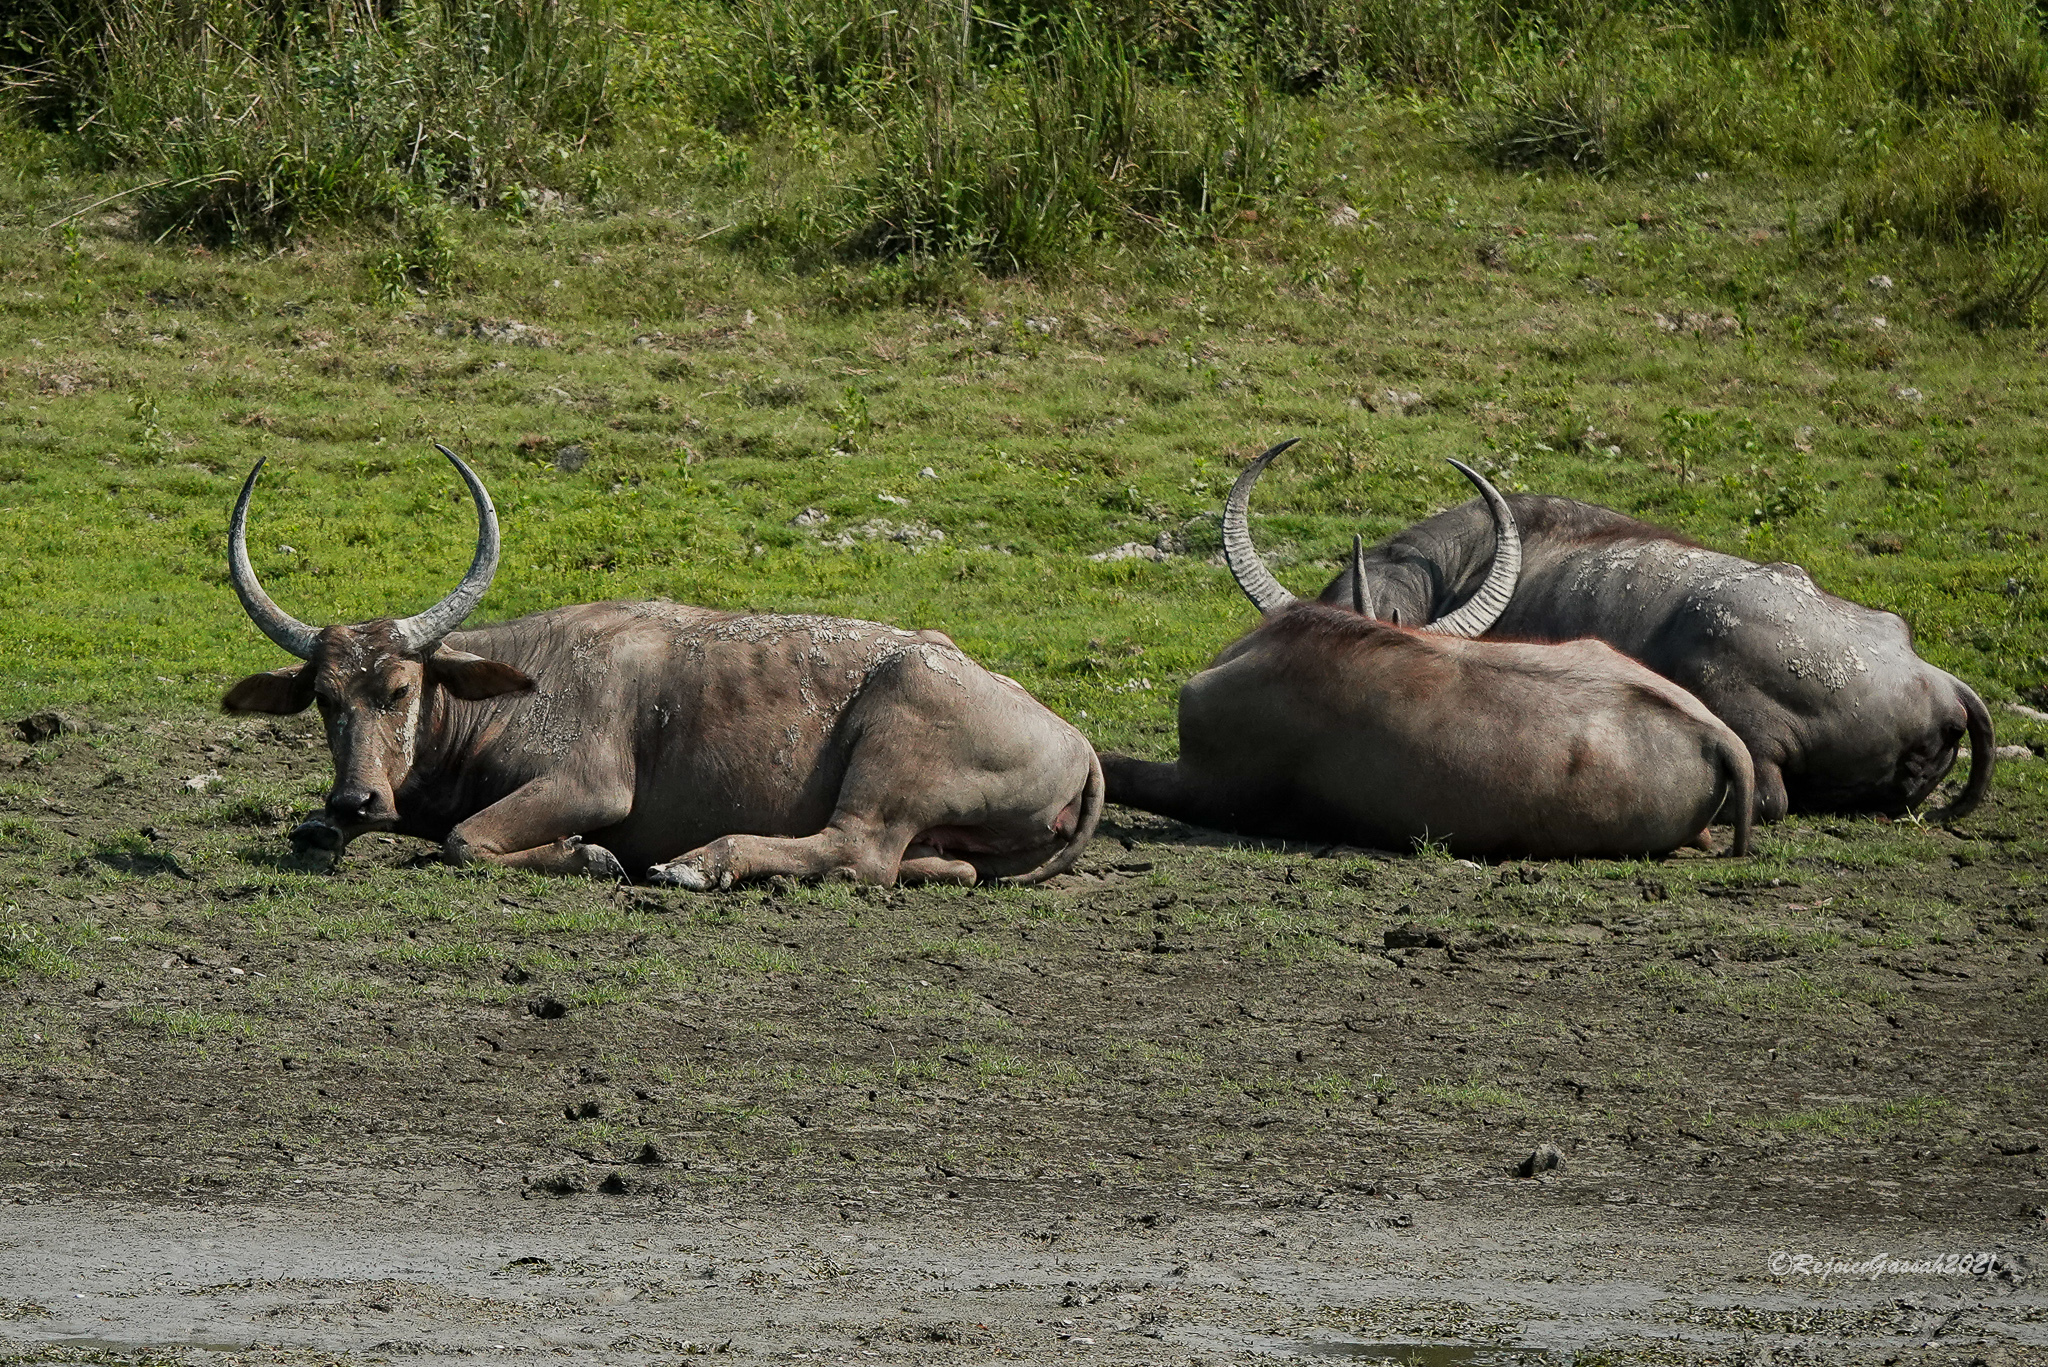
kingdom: Animalia
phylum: Chordata
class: Mammalia
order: Artiodactyla
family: Bovidae
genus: Bubalus
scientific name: Bubalus bubalis
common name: Water buffalo
